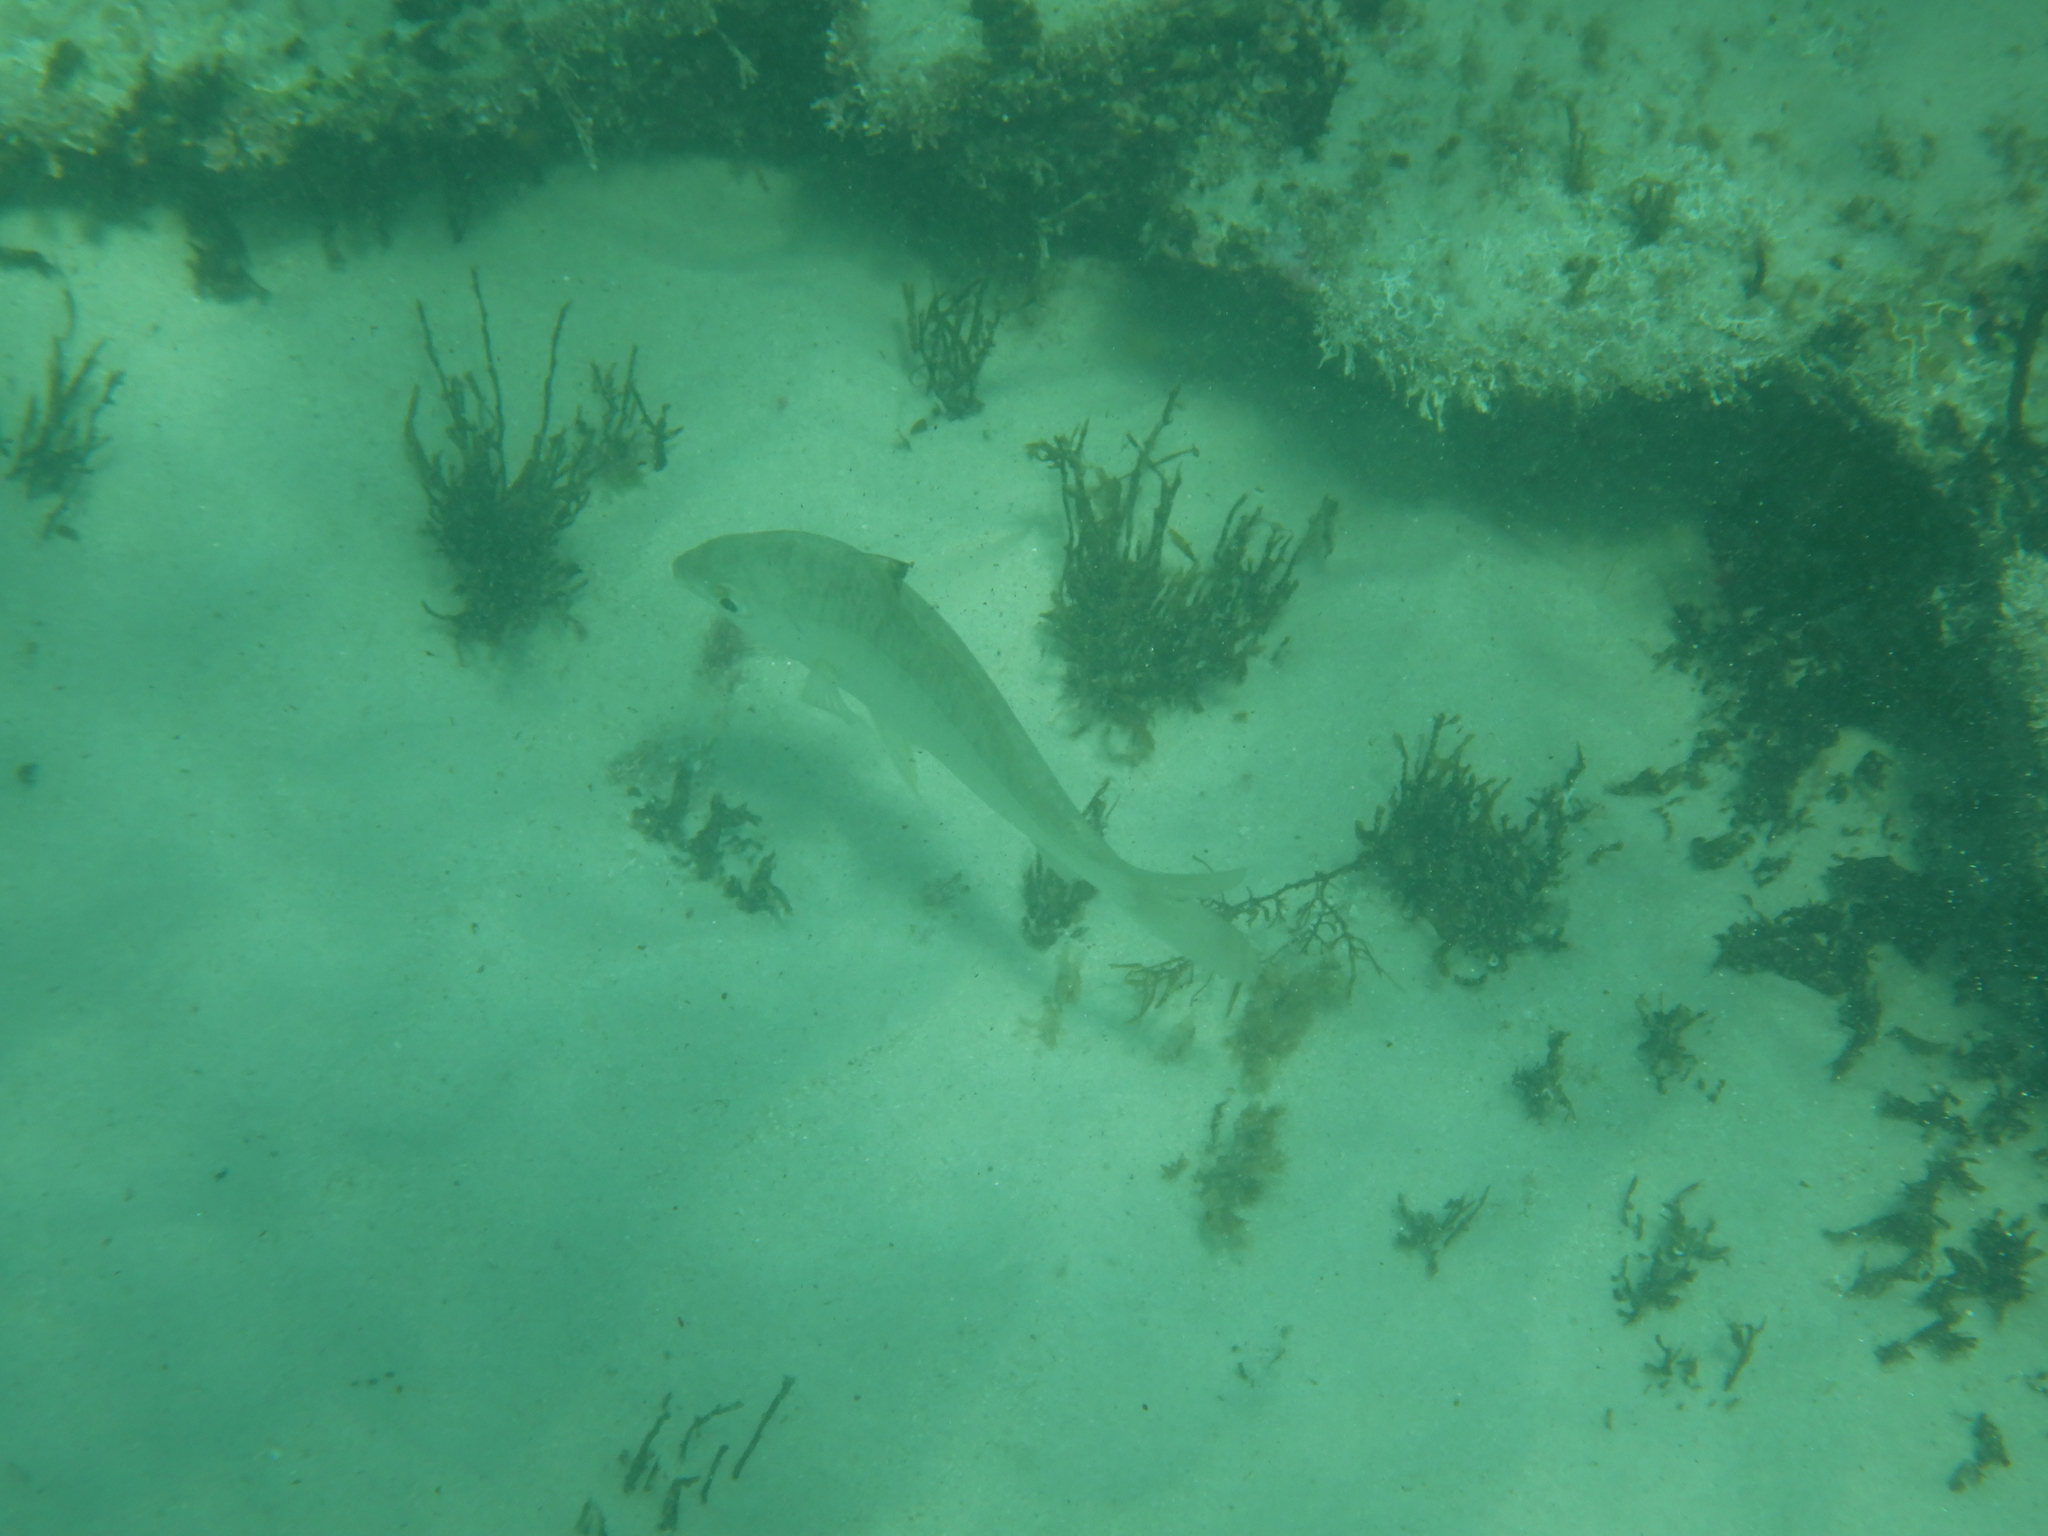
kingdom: Animalia
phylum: Chordata
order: Perciformes
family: Gerreidae
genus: Gerres
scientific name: Gerres subfasciatus
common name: Common silver belly
